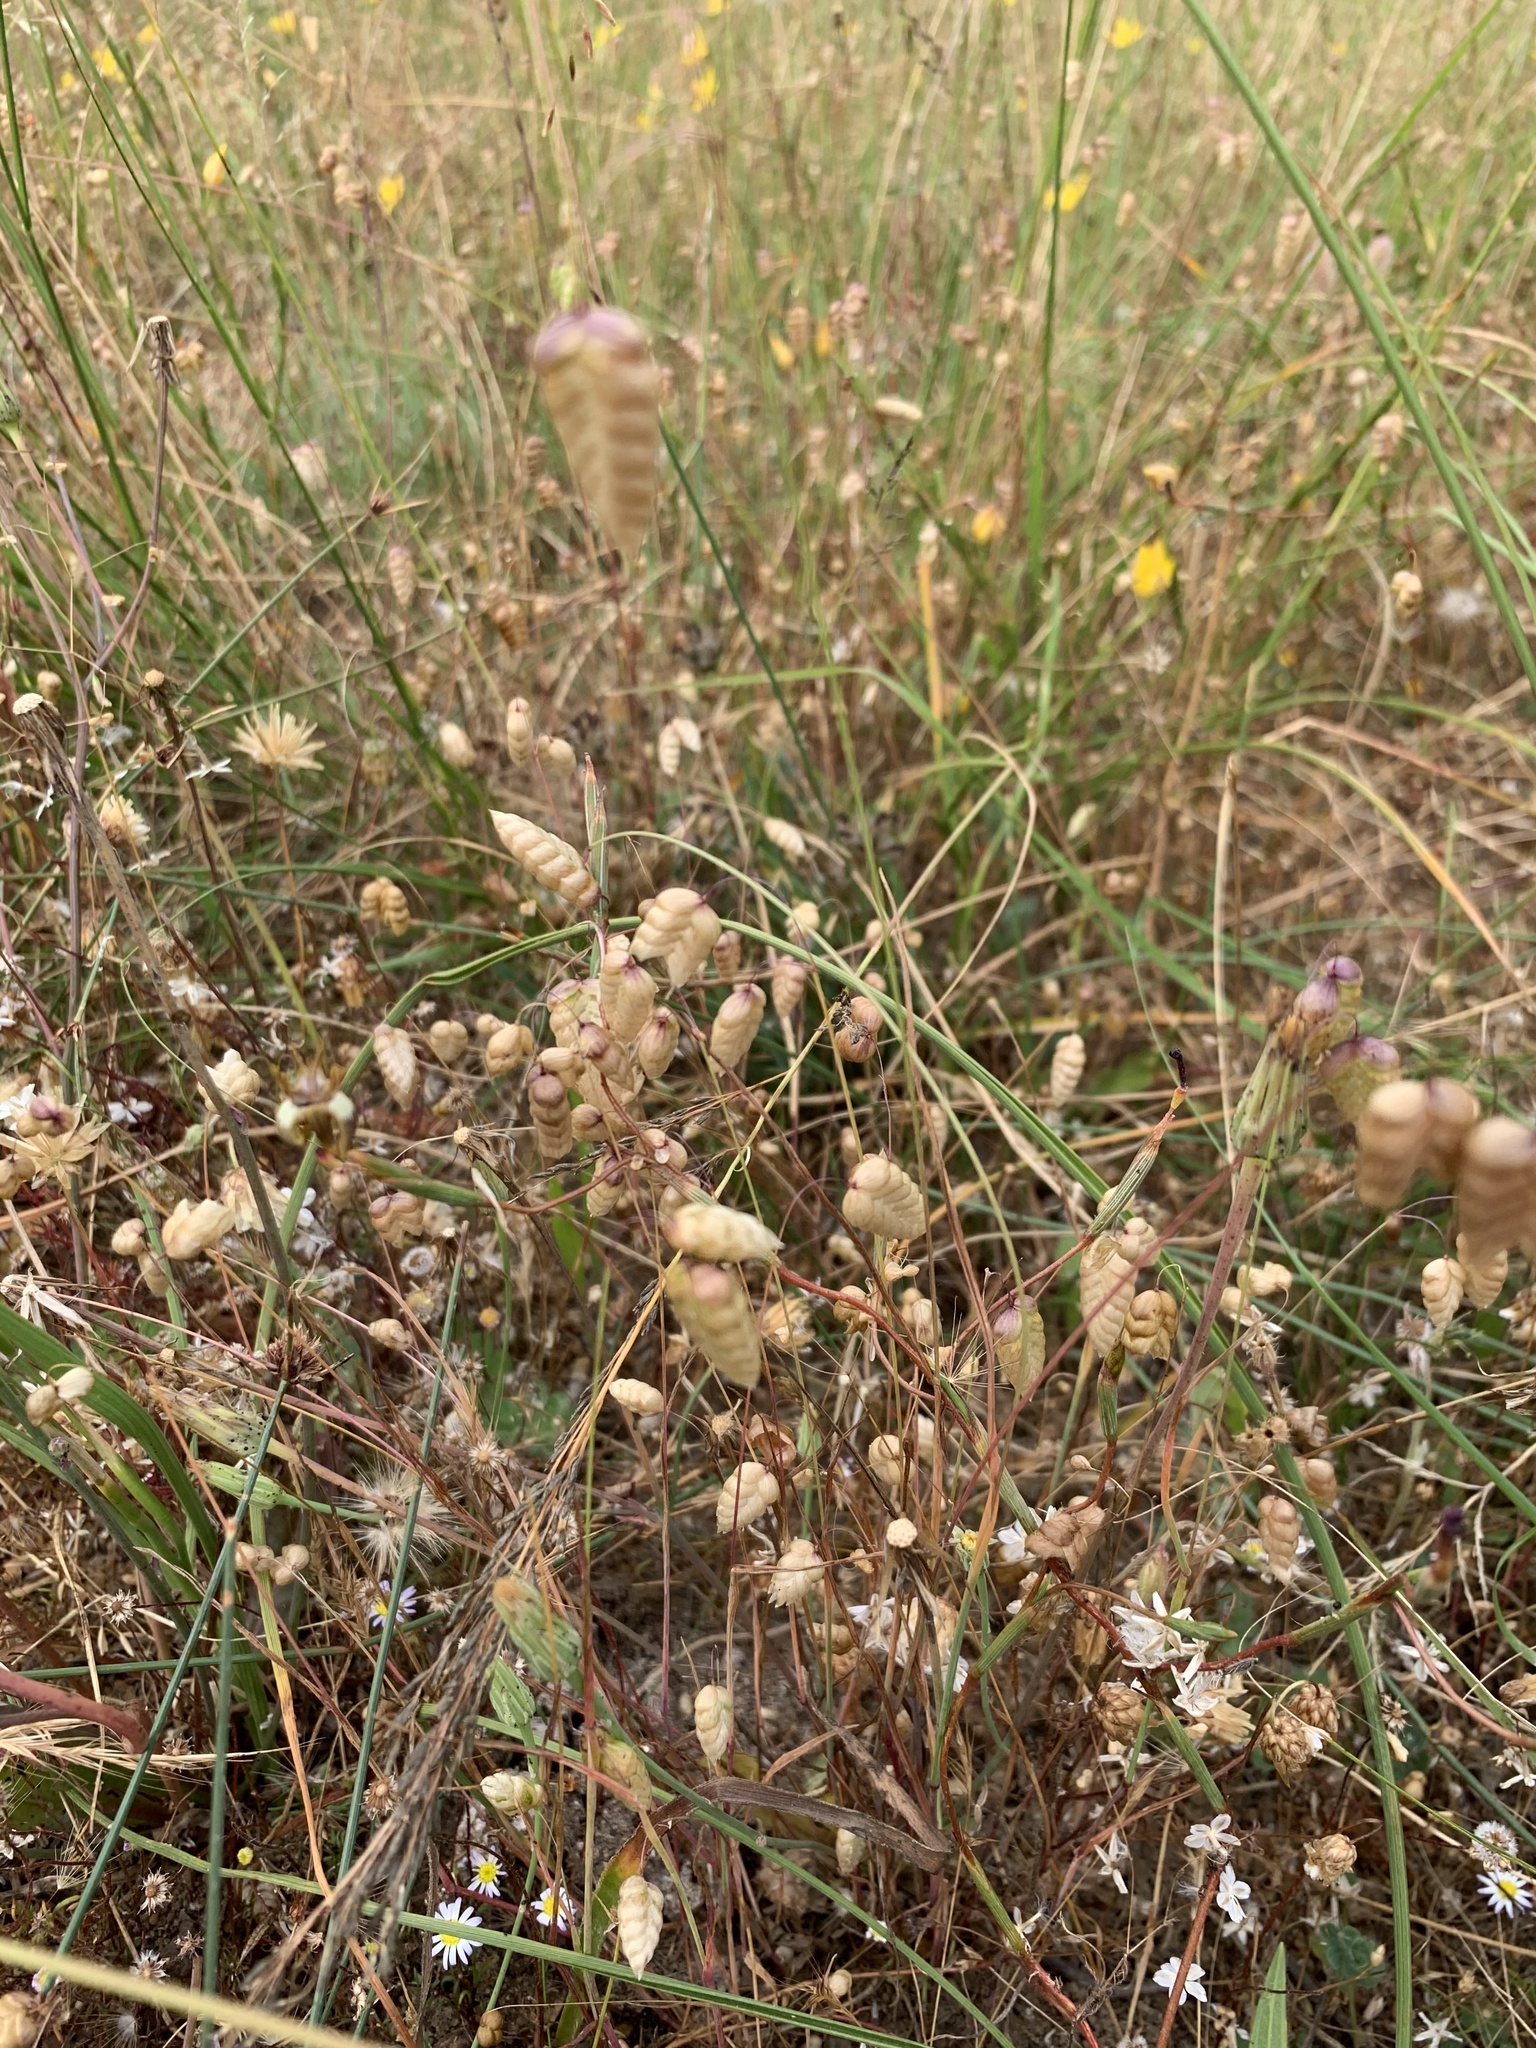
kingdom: Plantae
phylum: Tracheophyta
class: Liliopsida
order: Poales
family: Poaceae
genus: Briza
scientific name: Briza maxima
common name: Big quakinggrass
